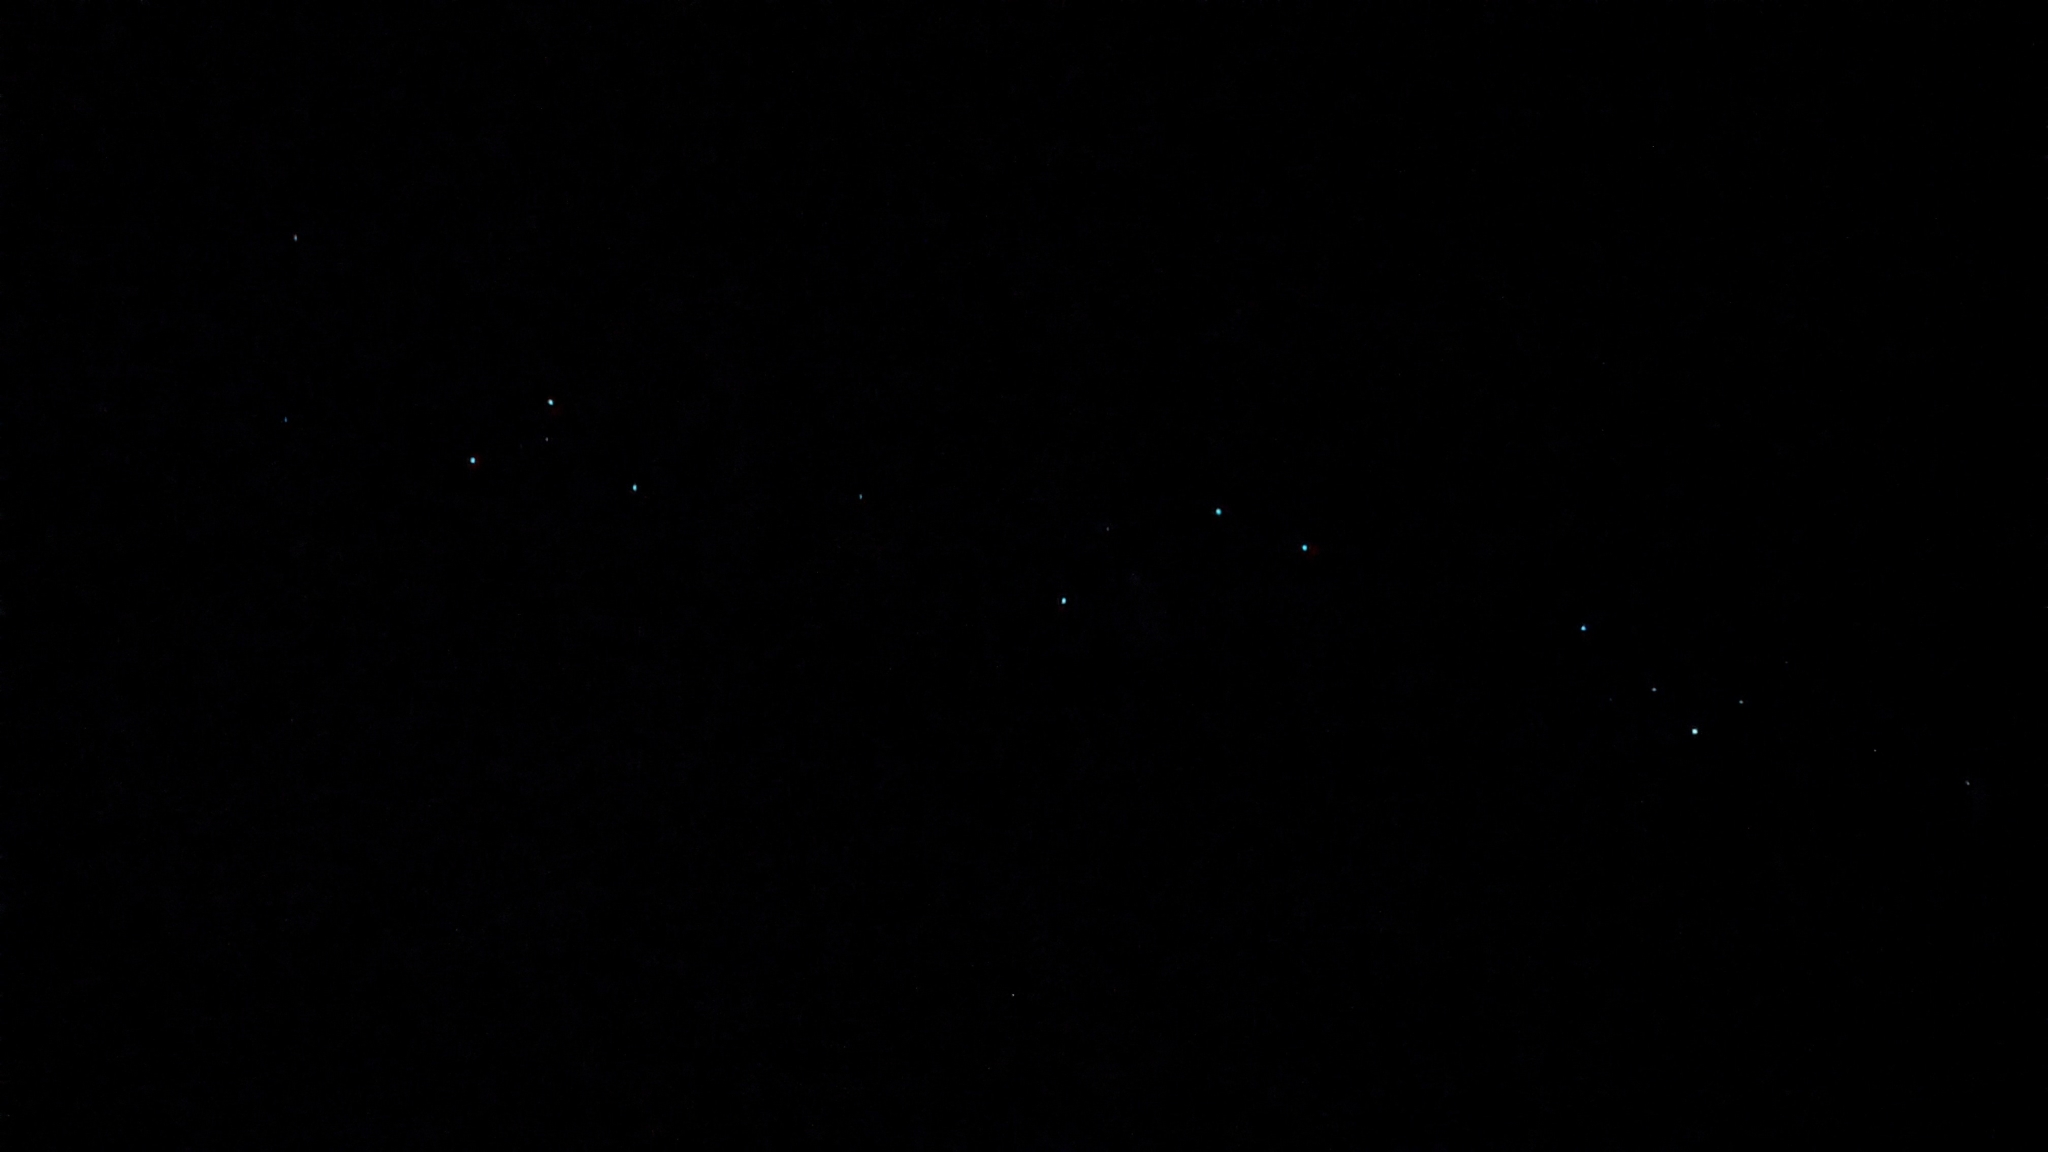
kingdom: Animalia
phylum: Arthropoda
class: Insecta
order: Diptera
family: Keroplatidae
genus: Arachnocampa
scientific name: Arachnocampa luminosa
